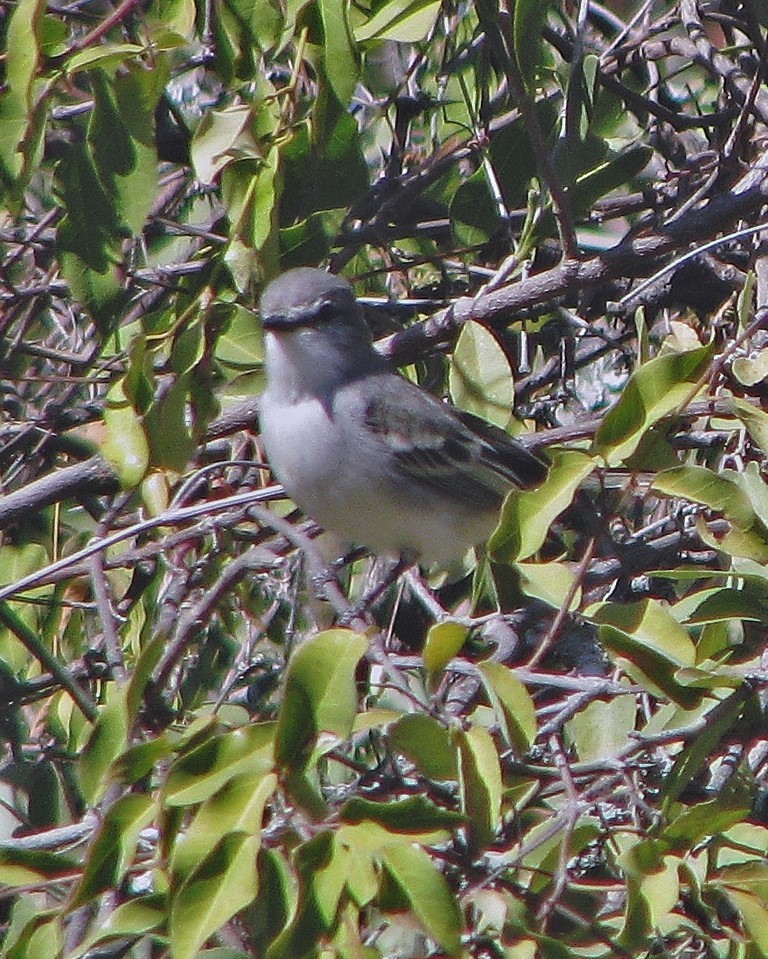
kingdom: Animalia
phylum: Chordata
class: Aves
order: Passeriformes
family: Tyrannidae
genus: Suiriri
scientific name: Suiriri suiriri
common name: Suiriri flycatcher
